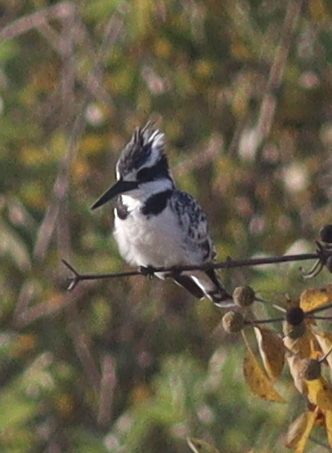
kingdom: Animalia
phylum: Chordata
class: Aves
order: Coraciiformes
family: Alcedinidae
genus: Ceryle
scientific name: Ceryle rudis
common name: Pied kingfisher
